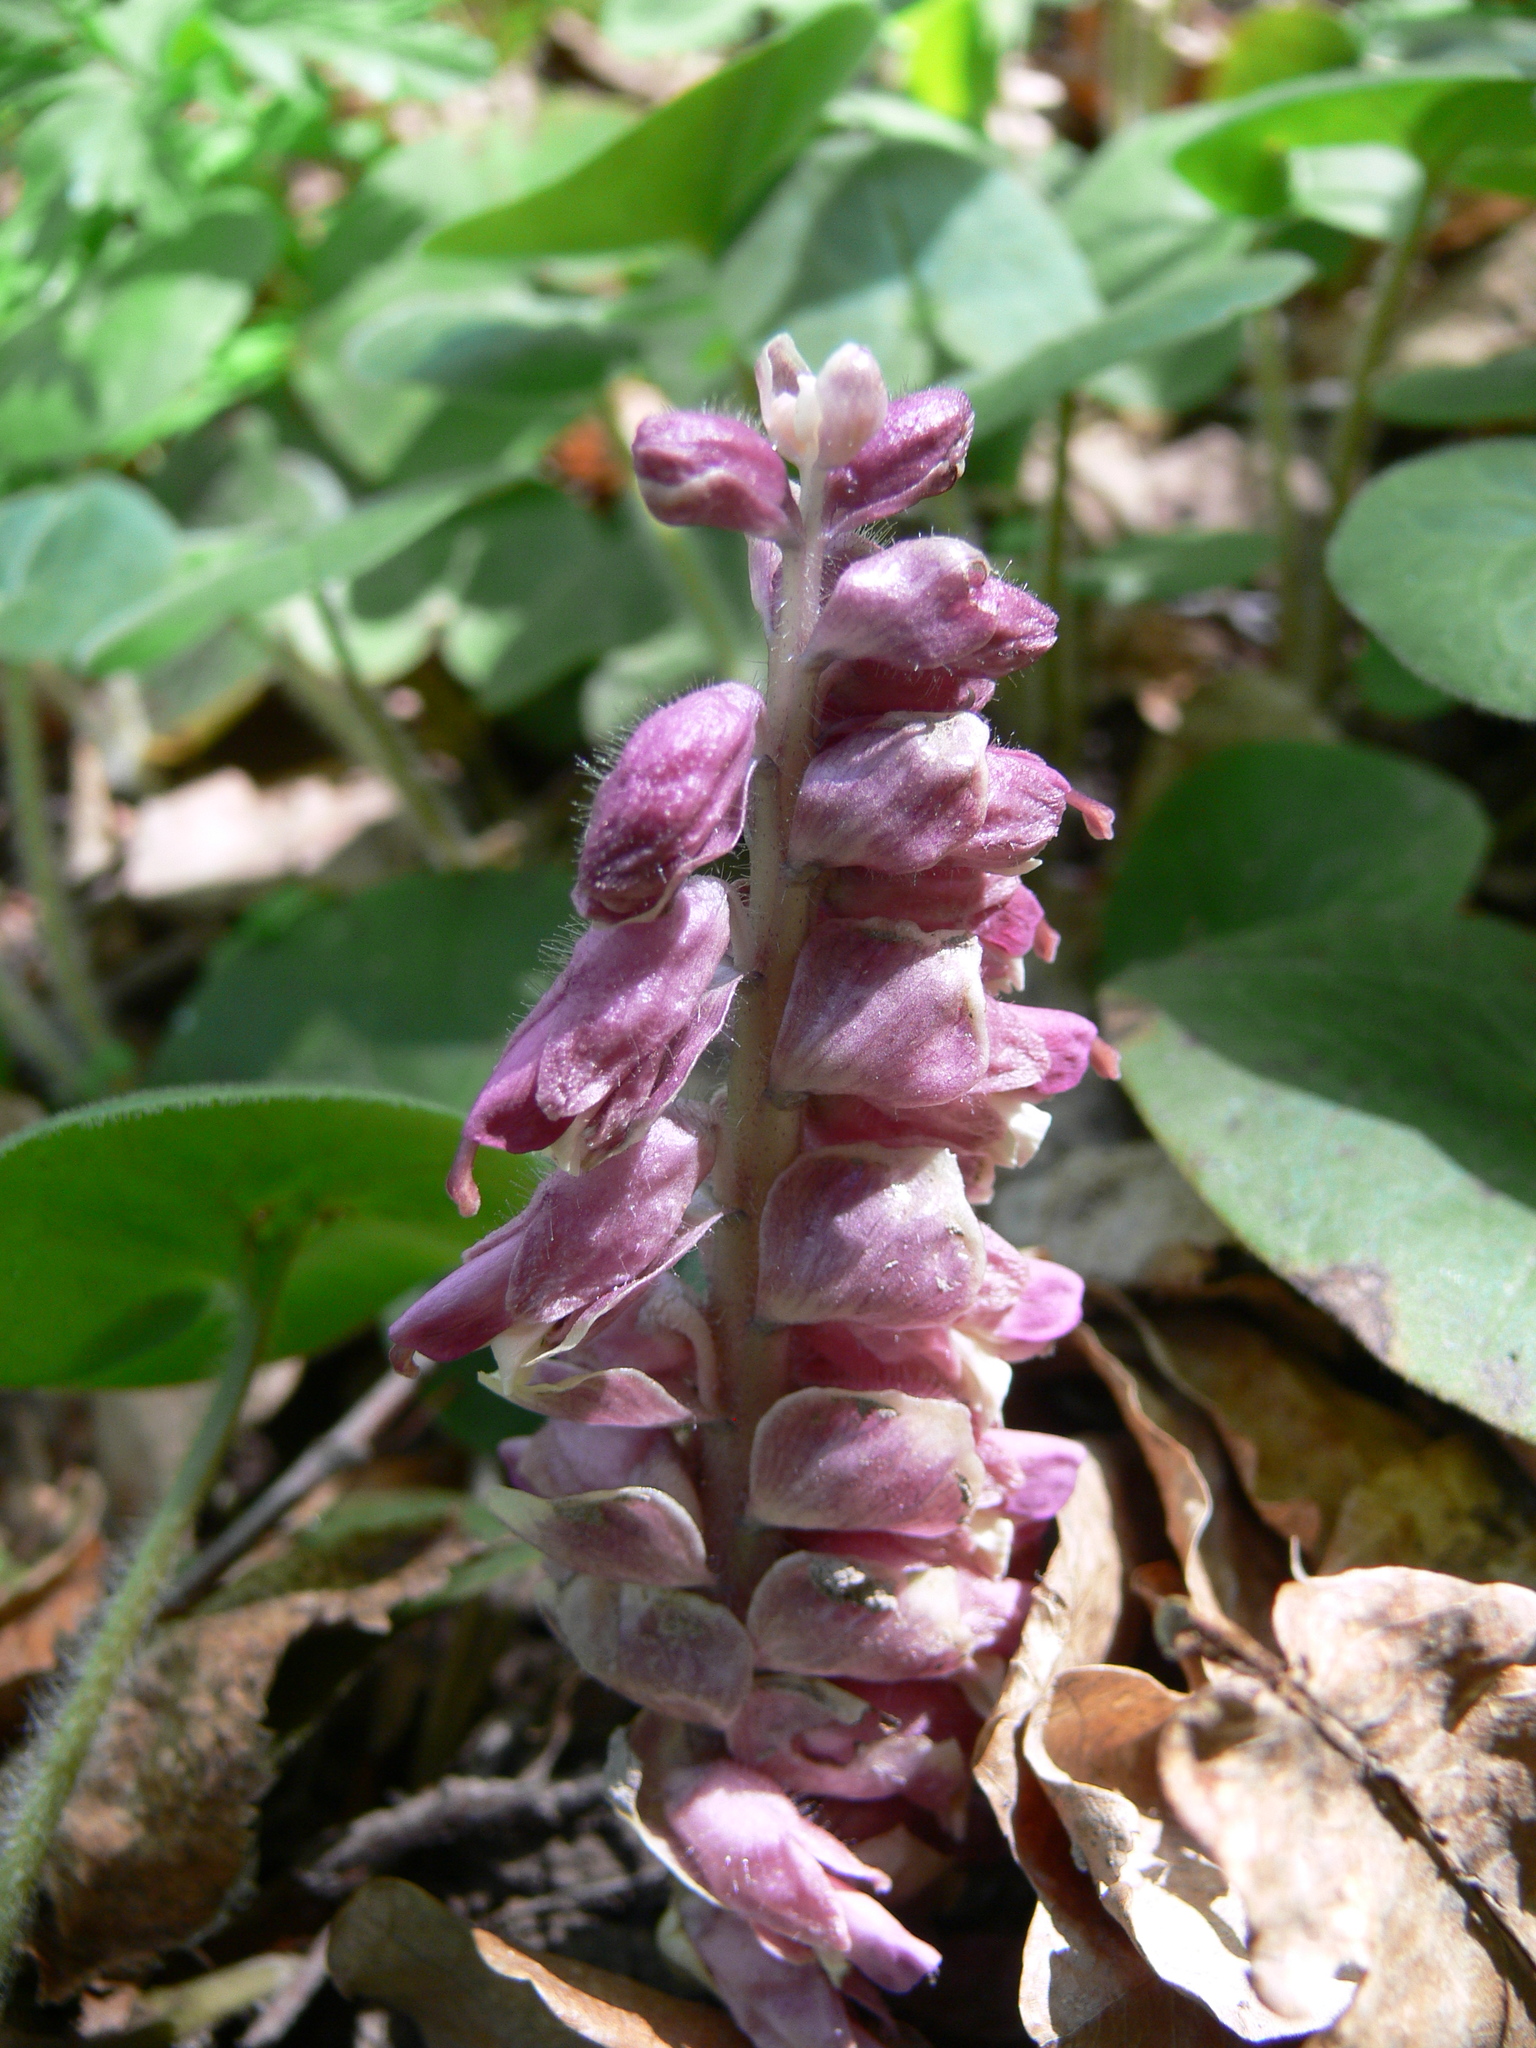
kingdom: Plantae
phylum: Tracheophyta
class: Magnoliopsida
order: Lamiales
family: Orobanchaceae
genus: Lathraea
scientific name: Lathraea squamaria
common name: Toothwort
